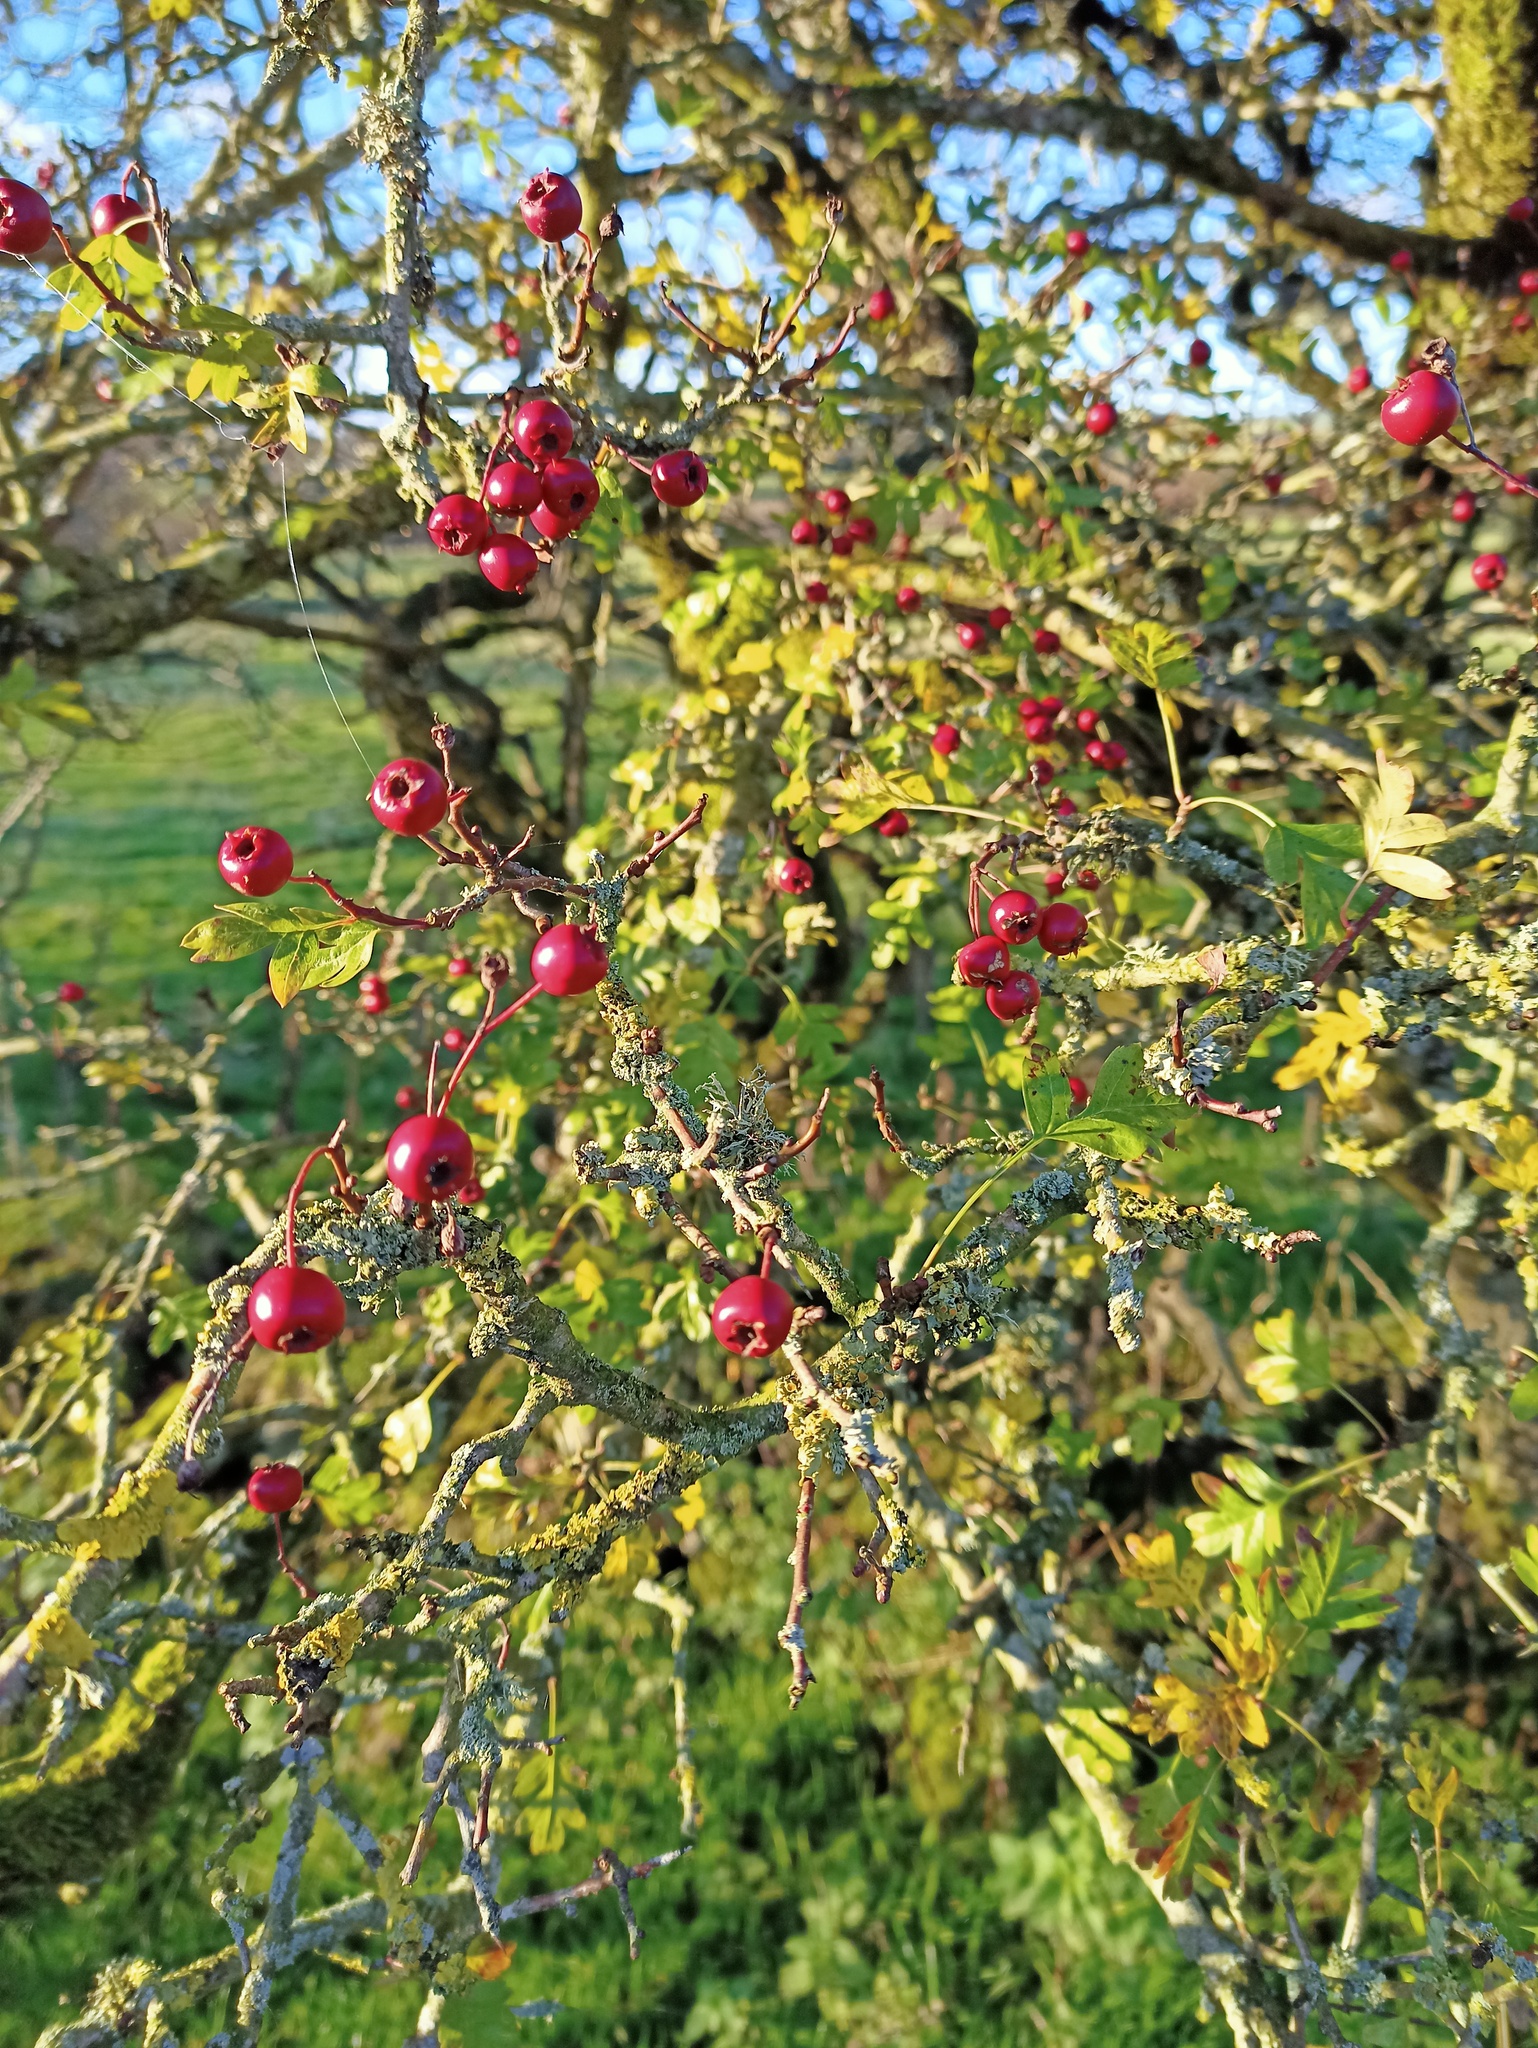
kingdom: Plantae
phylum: Tracheophyta
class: Magnoliopsida
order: Rosales
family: Rosaceae
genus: Crataegus
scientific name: Crataegus monogyna
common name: Hawthorn
